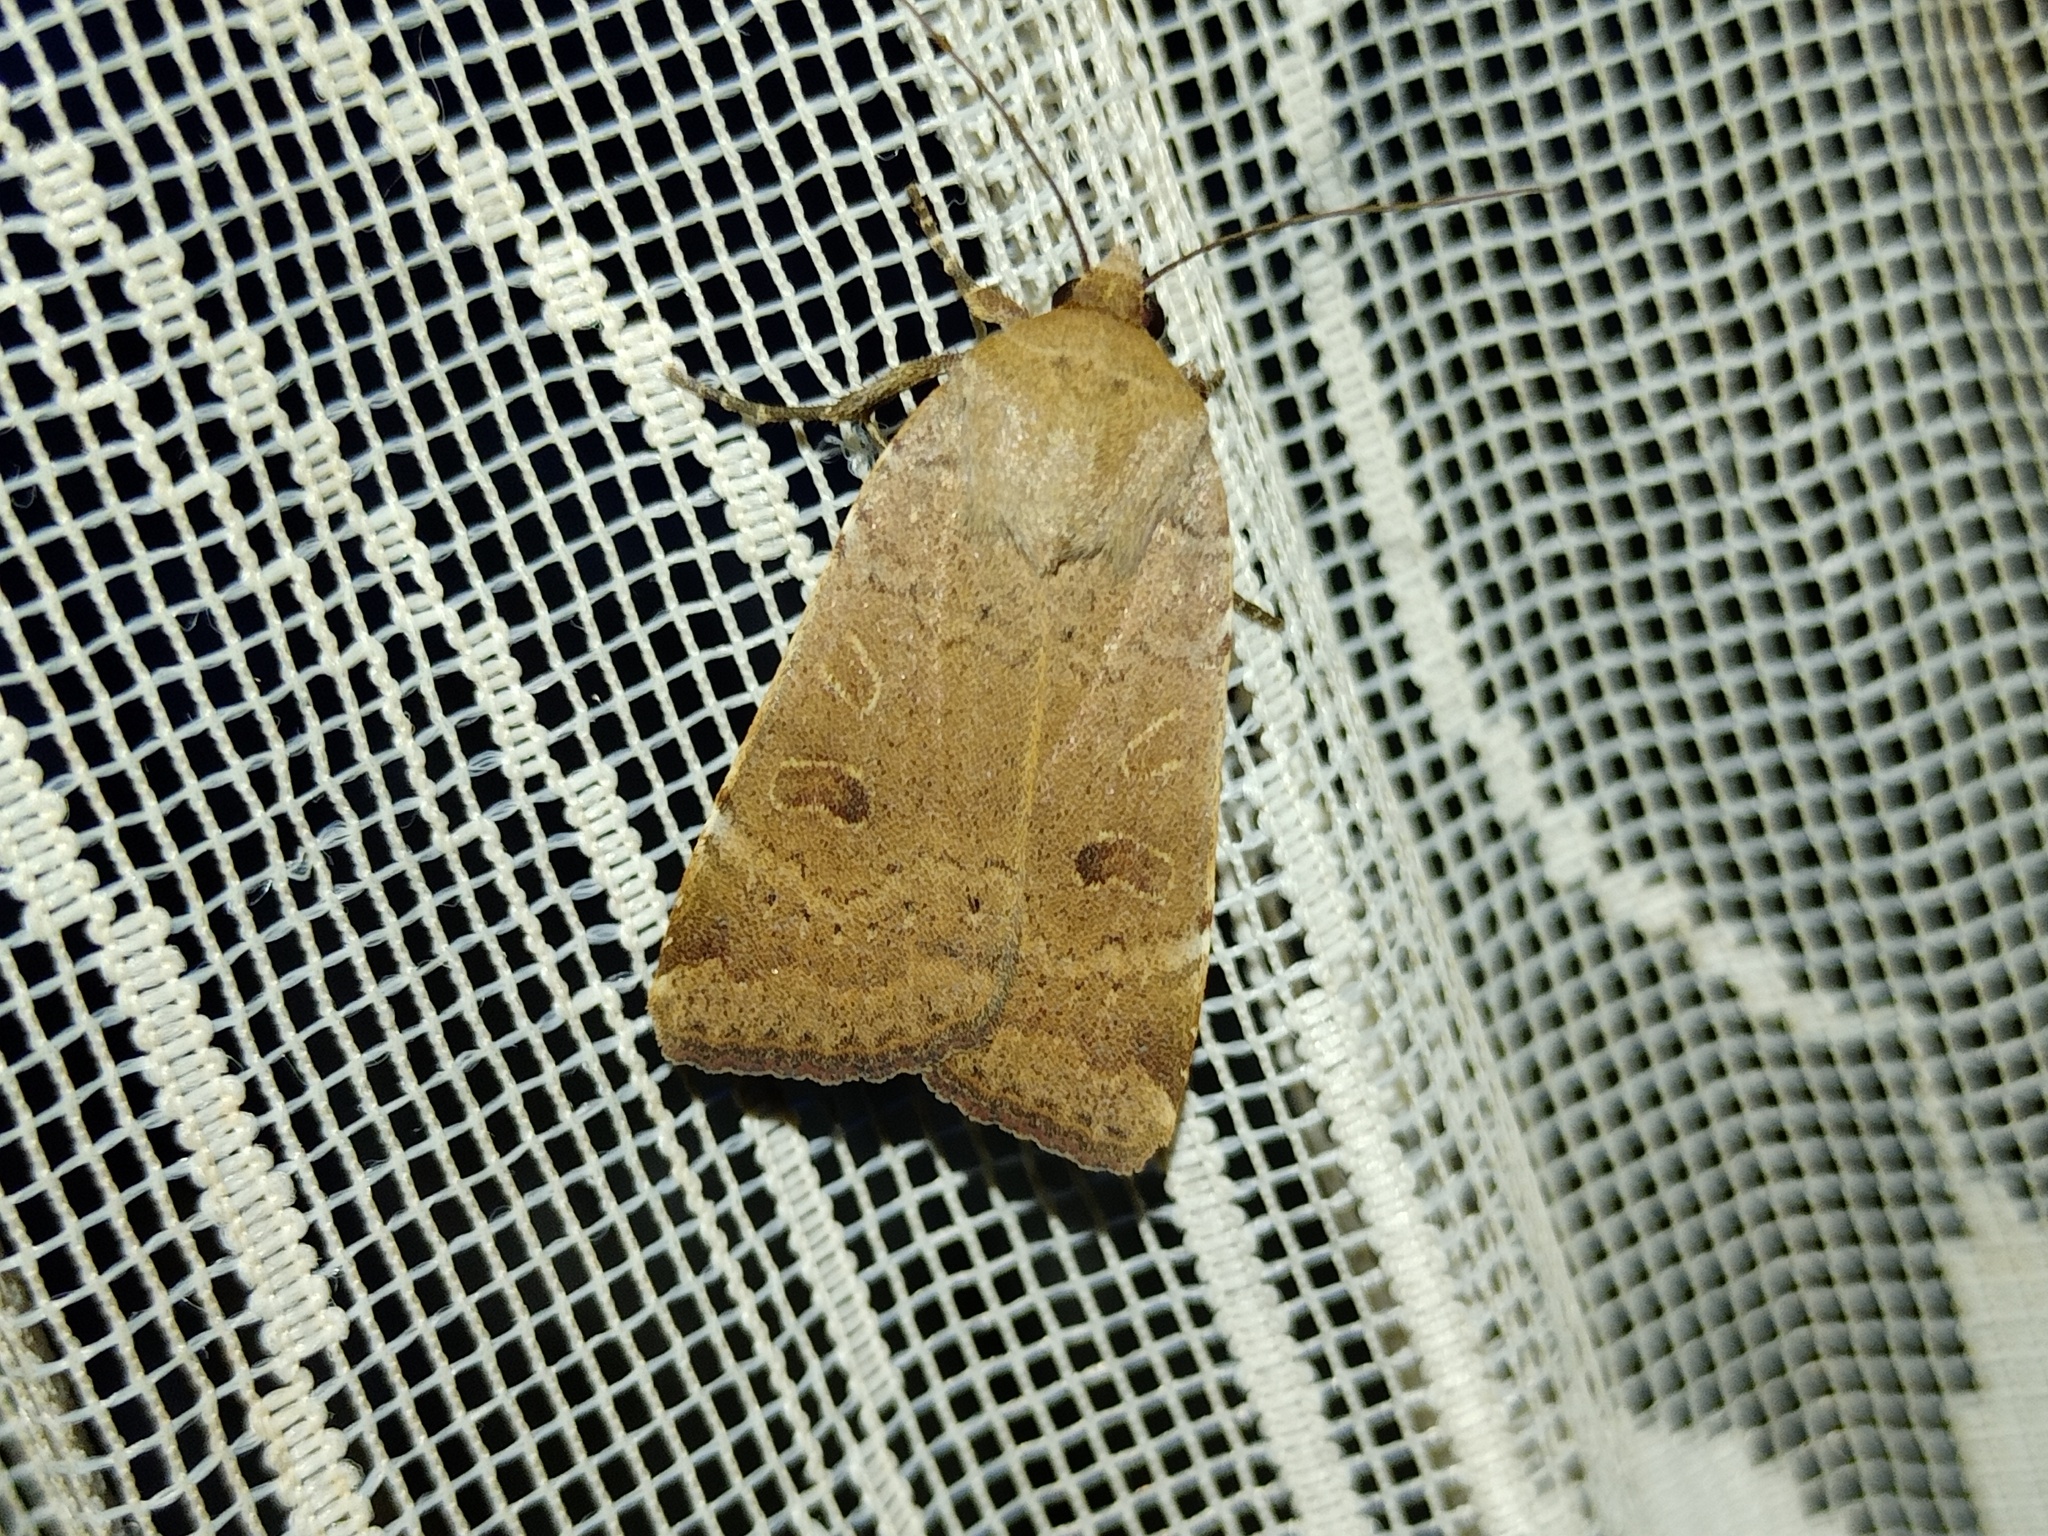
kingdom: Animalia
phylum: Arthropoda
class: Insecta
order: Lepidoptera
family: Noctuidae
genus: Noctua
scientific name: Noctua comes
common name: Lesser yellow underwing
